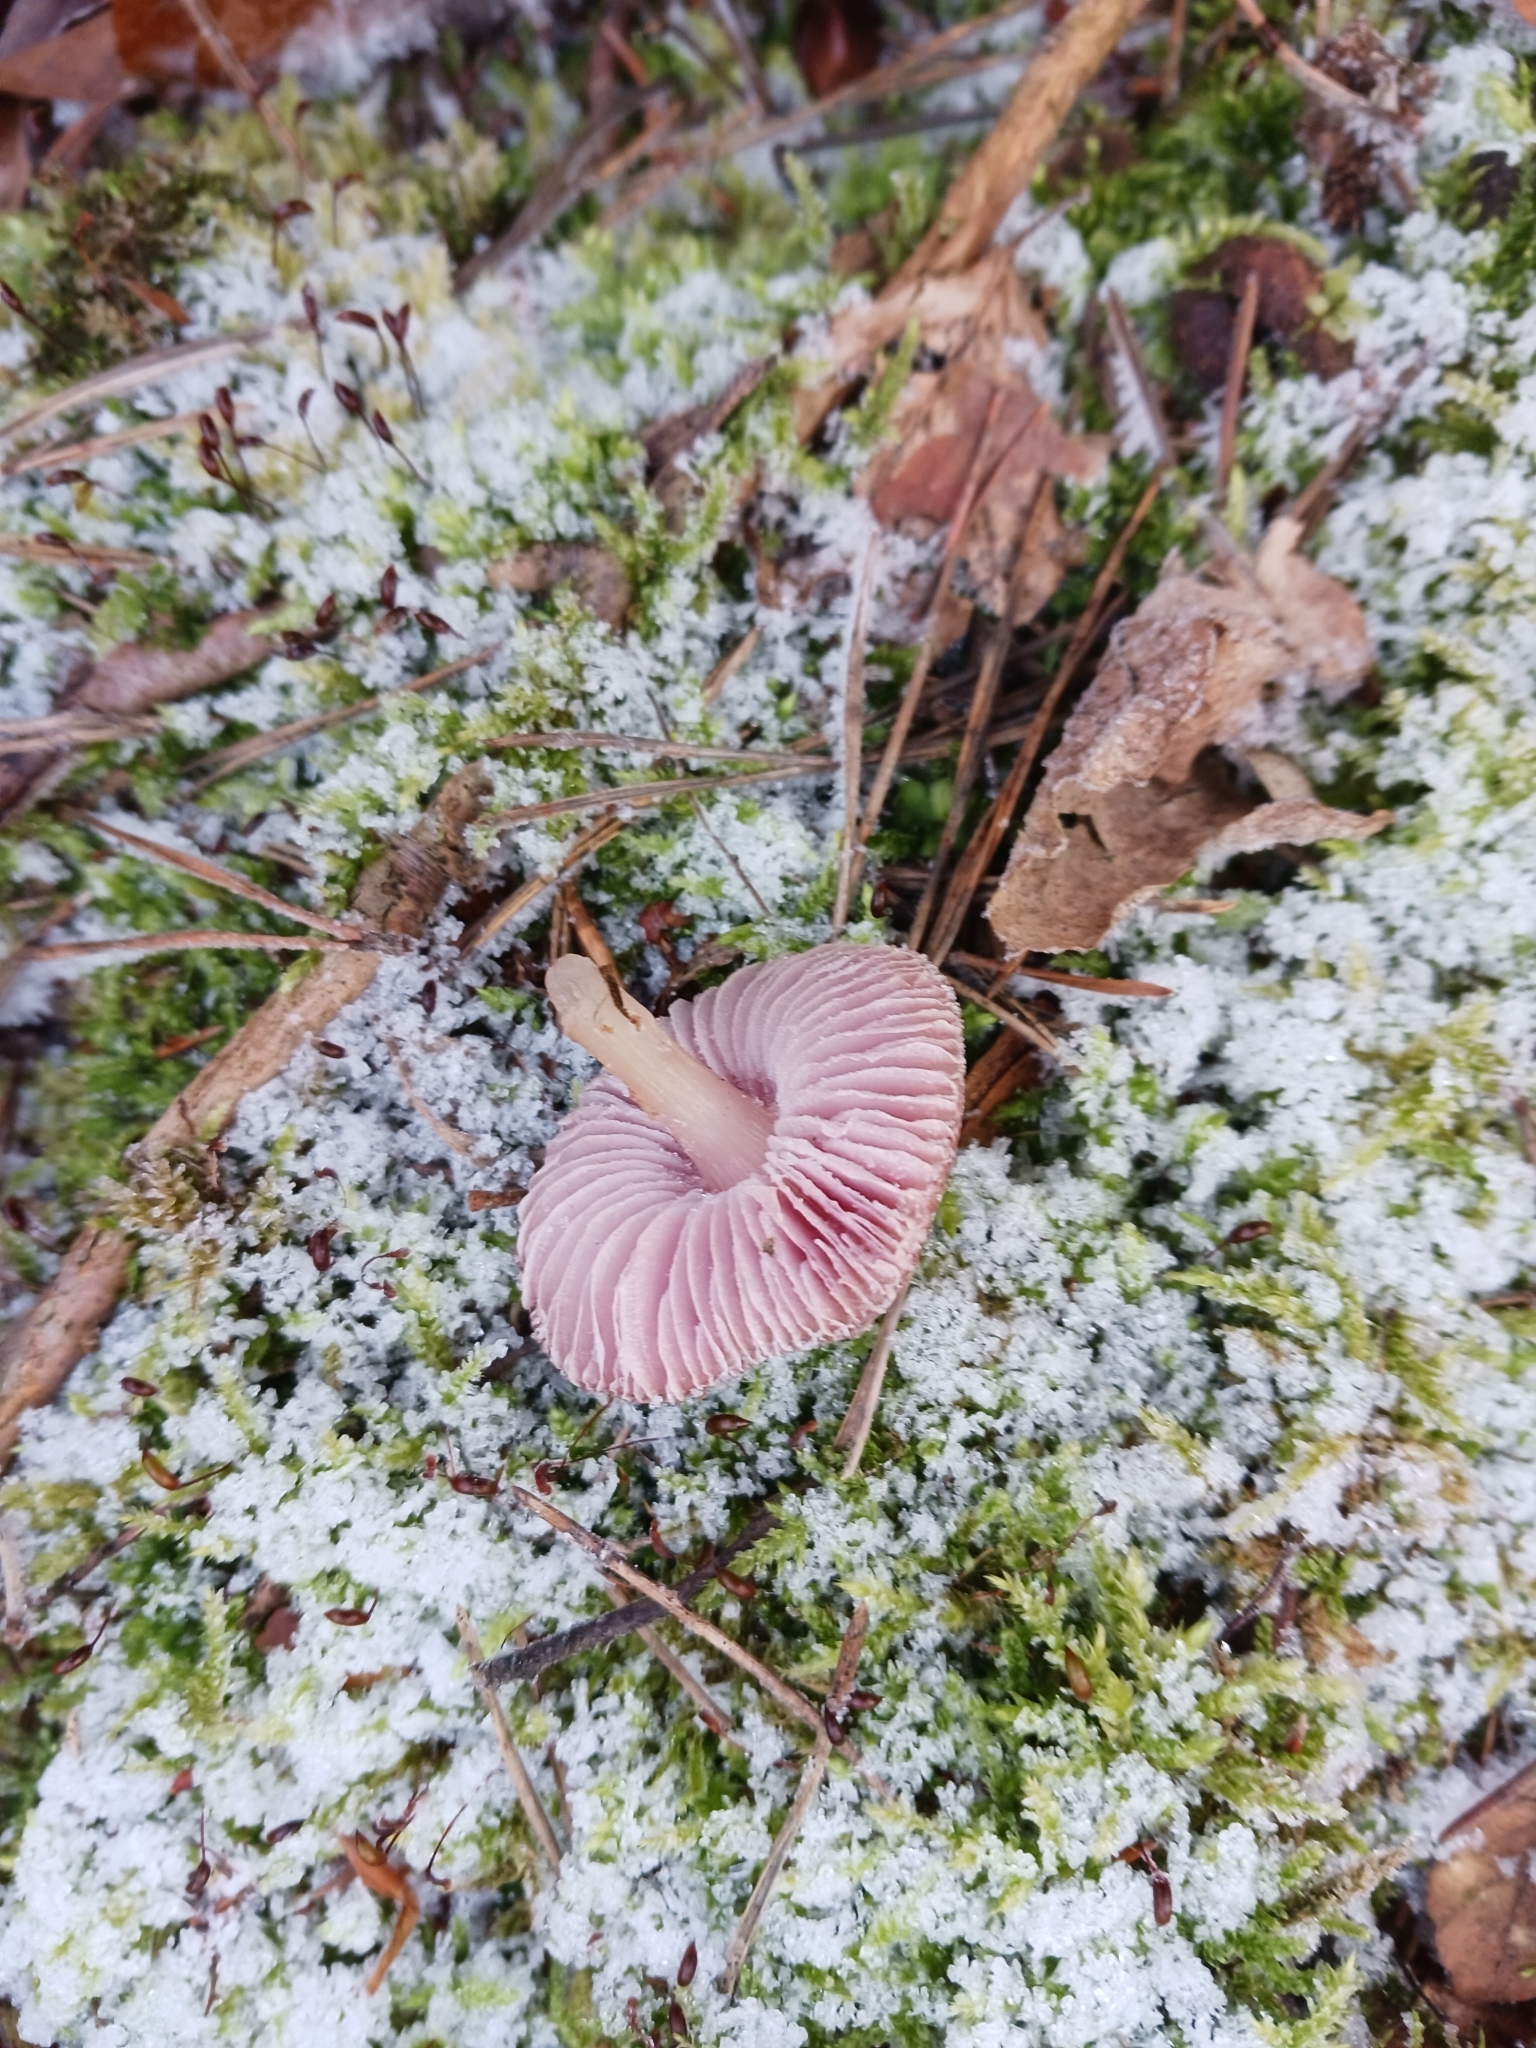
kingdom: Fungi
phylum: Basidiomycota
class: Agaricomycetes
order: Agaricales
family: Mycenaceae
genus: Mycena
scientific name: Mycena rosea
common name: Rosy bonnet
